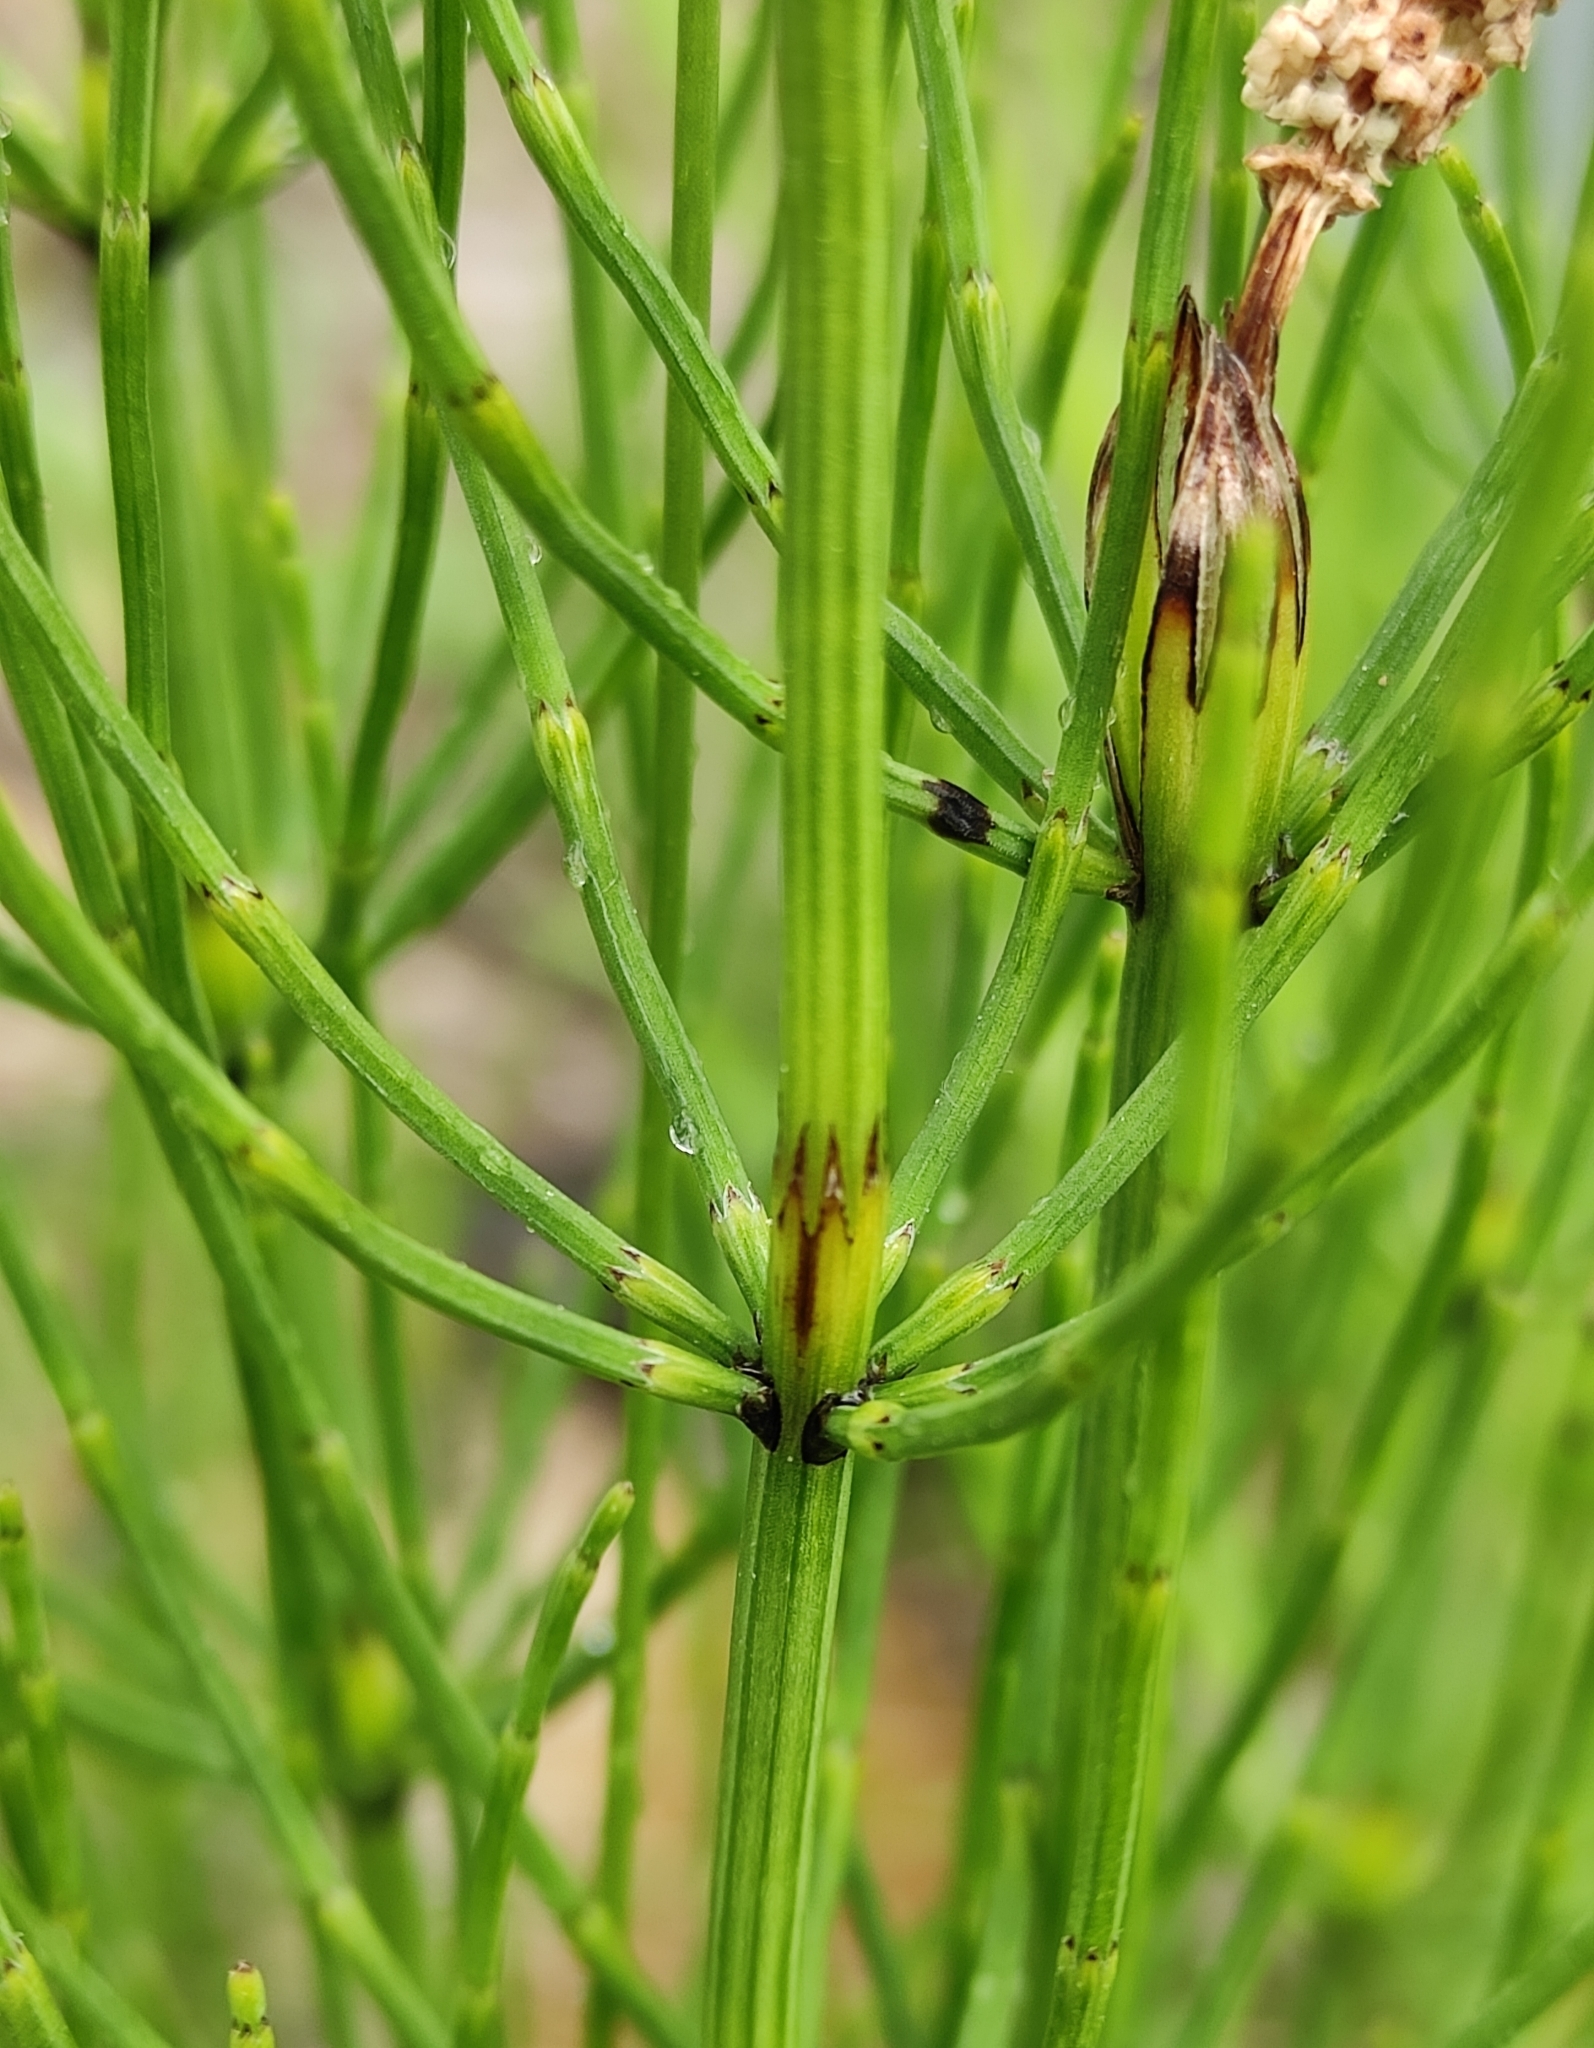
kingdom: Plantae
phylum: Tracheophyta
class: Polypodiopsida
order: Equisetales
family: Equisetaceae
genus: Equisetum
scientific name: Equisetum palustre
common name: Marsh horsetail
